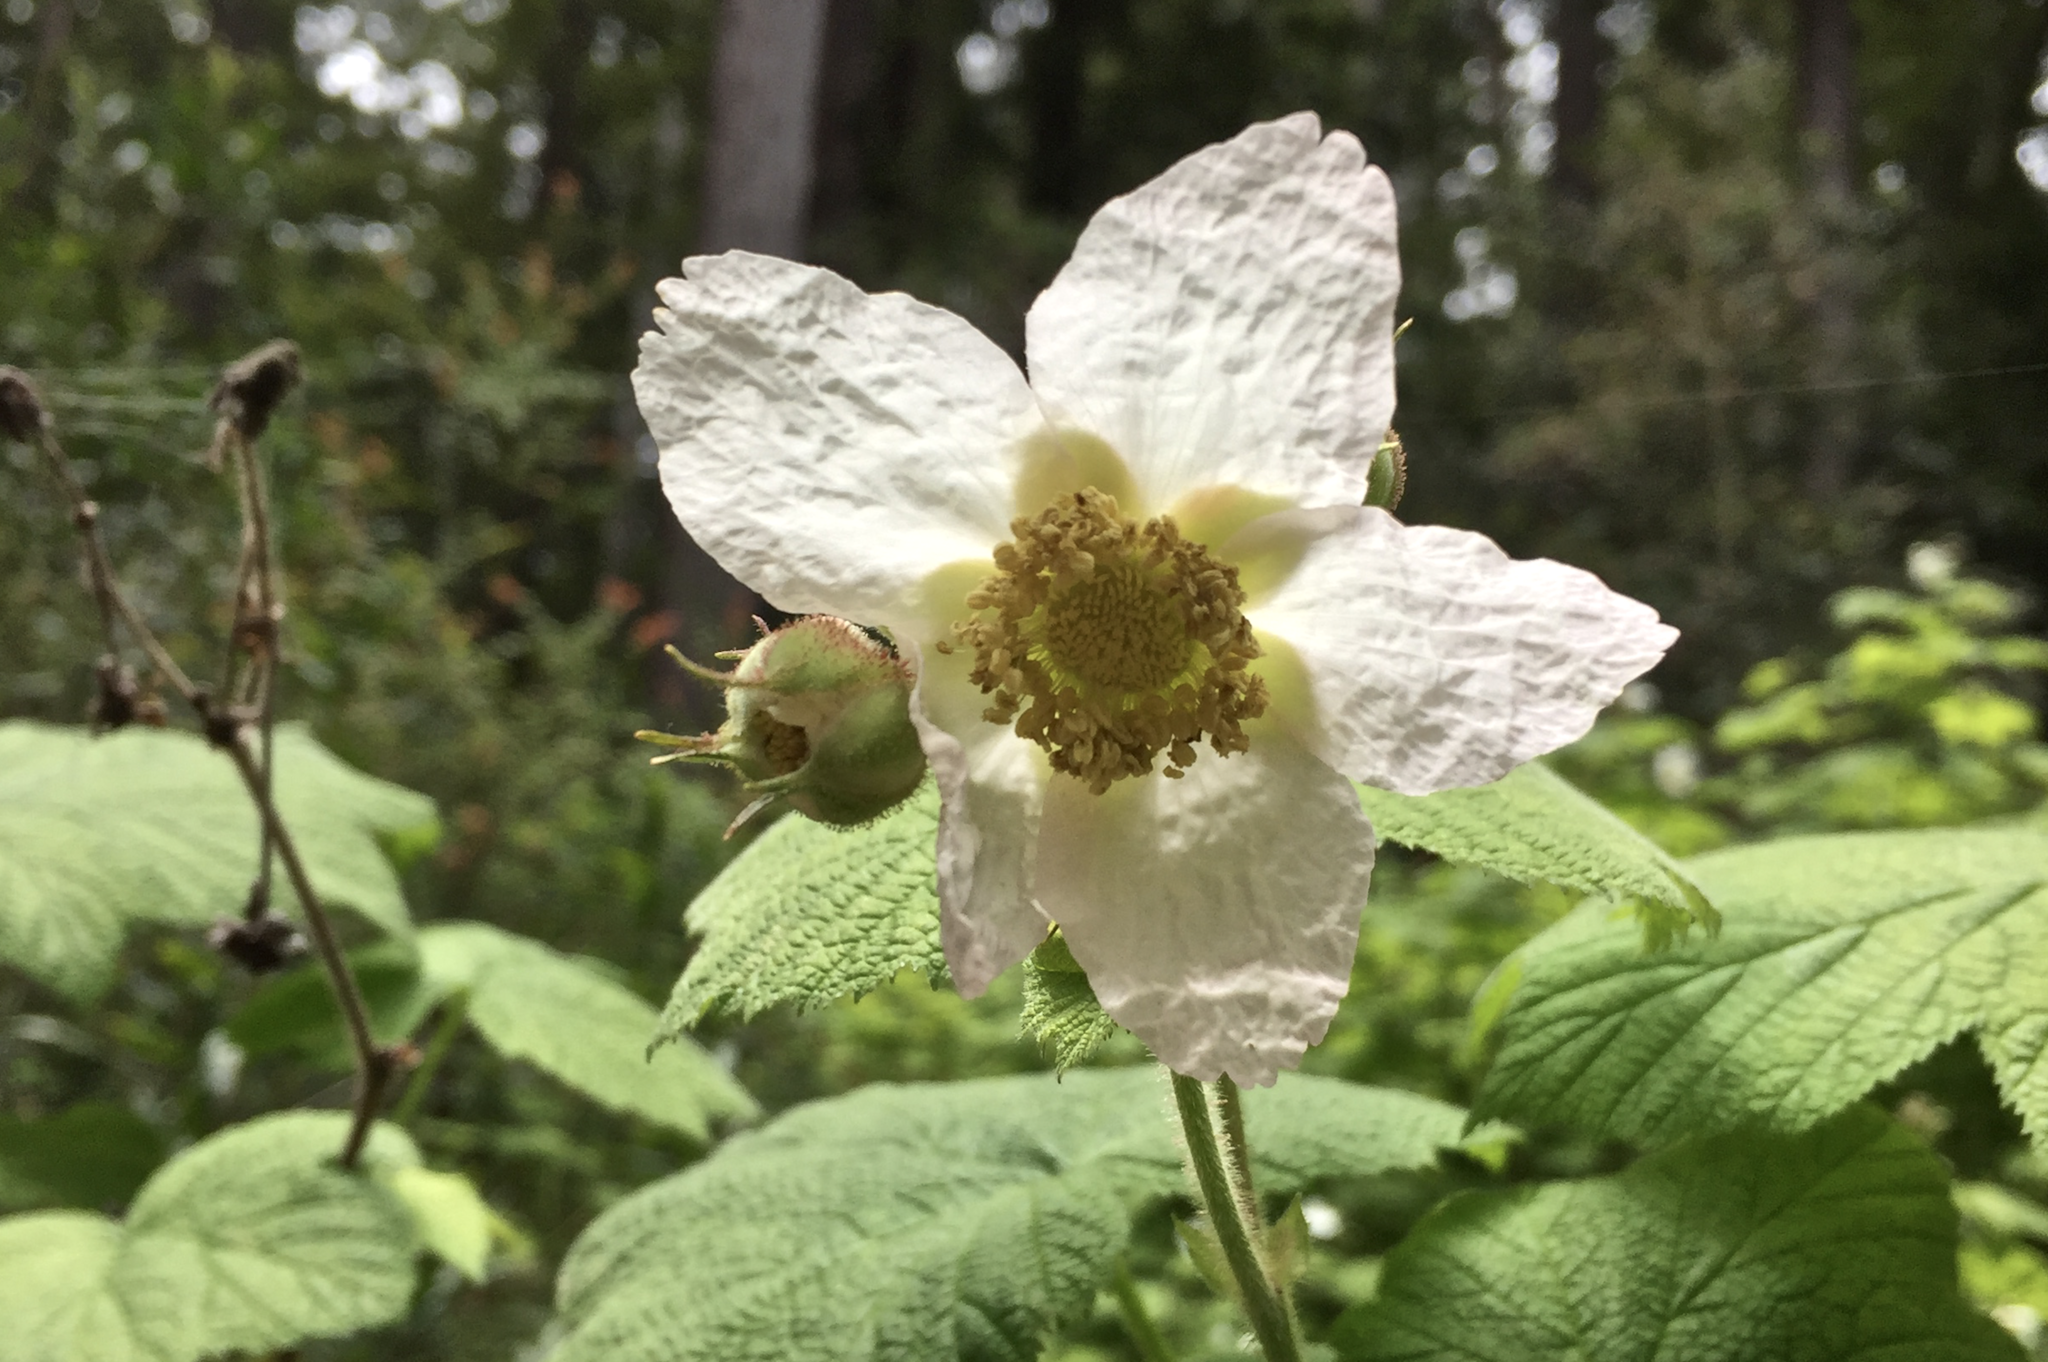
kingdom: Plantae
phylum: Tracheophyta
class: Magnoliopsida
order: Rosales
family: Rosaceae
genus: Rubus
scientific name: Rubus parviflorus
